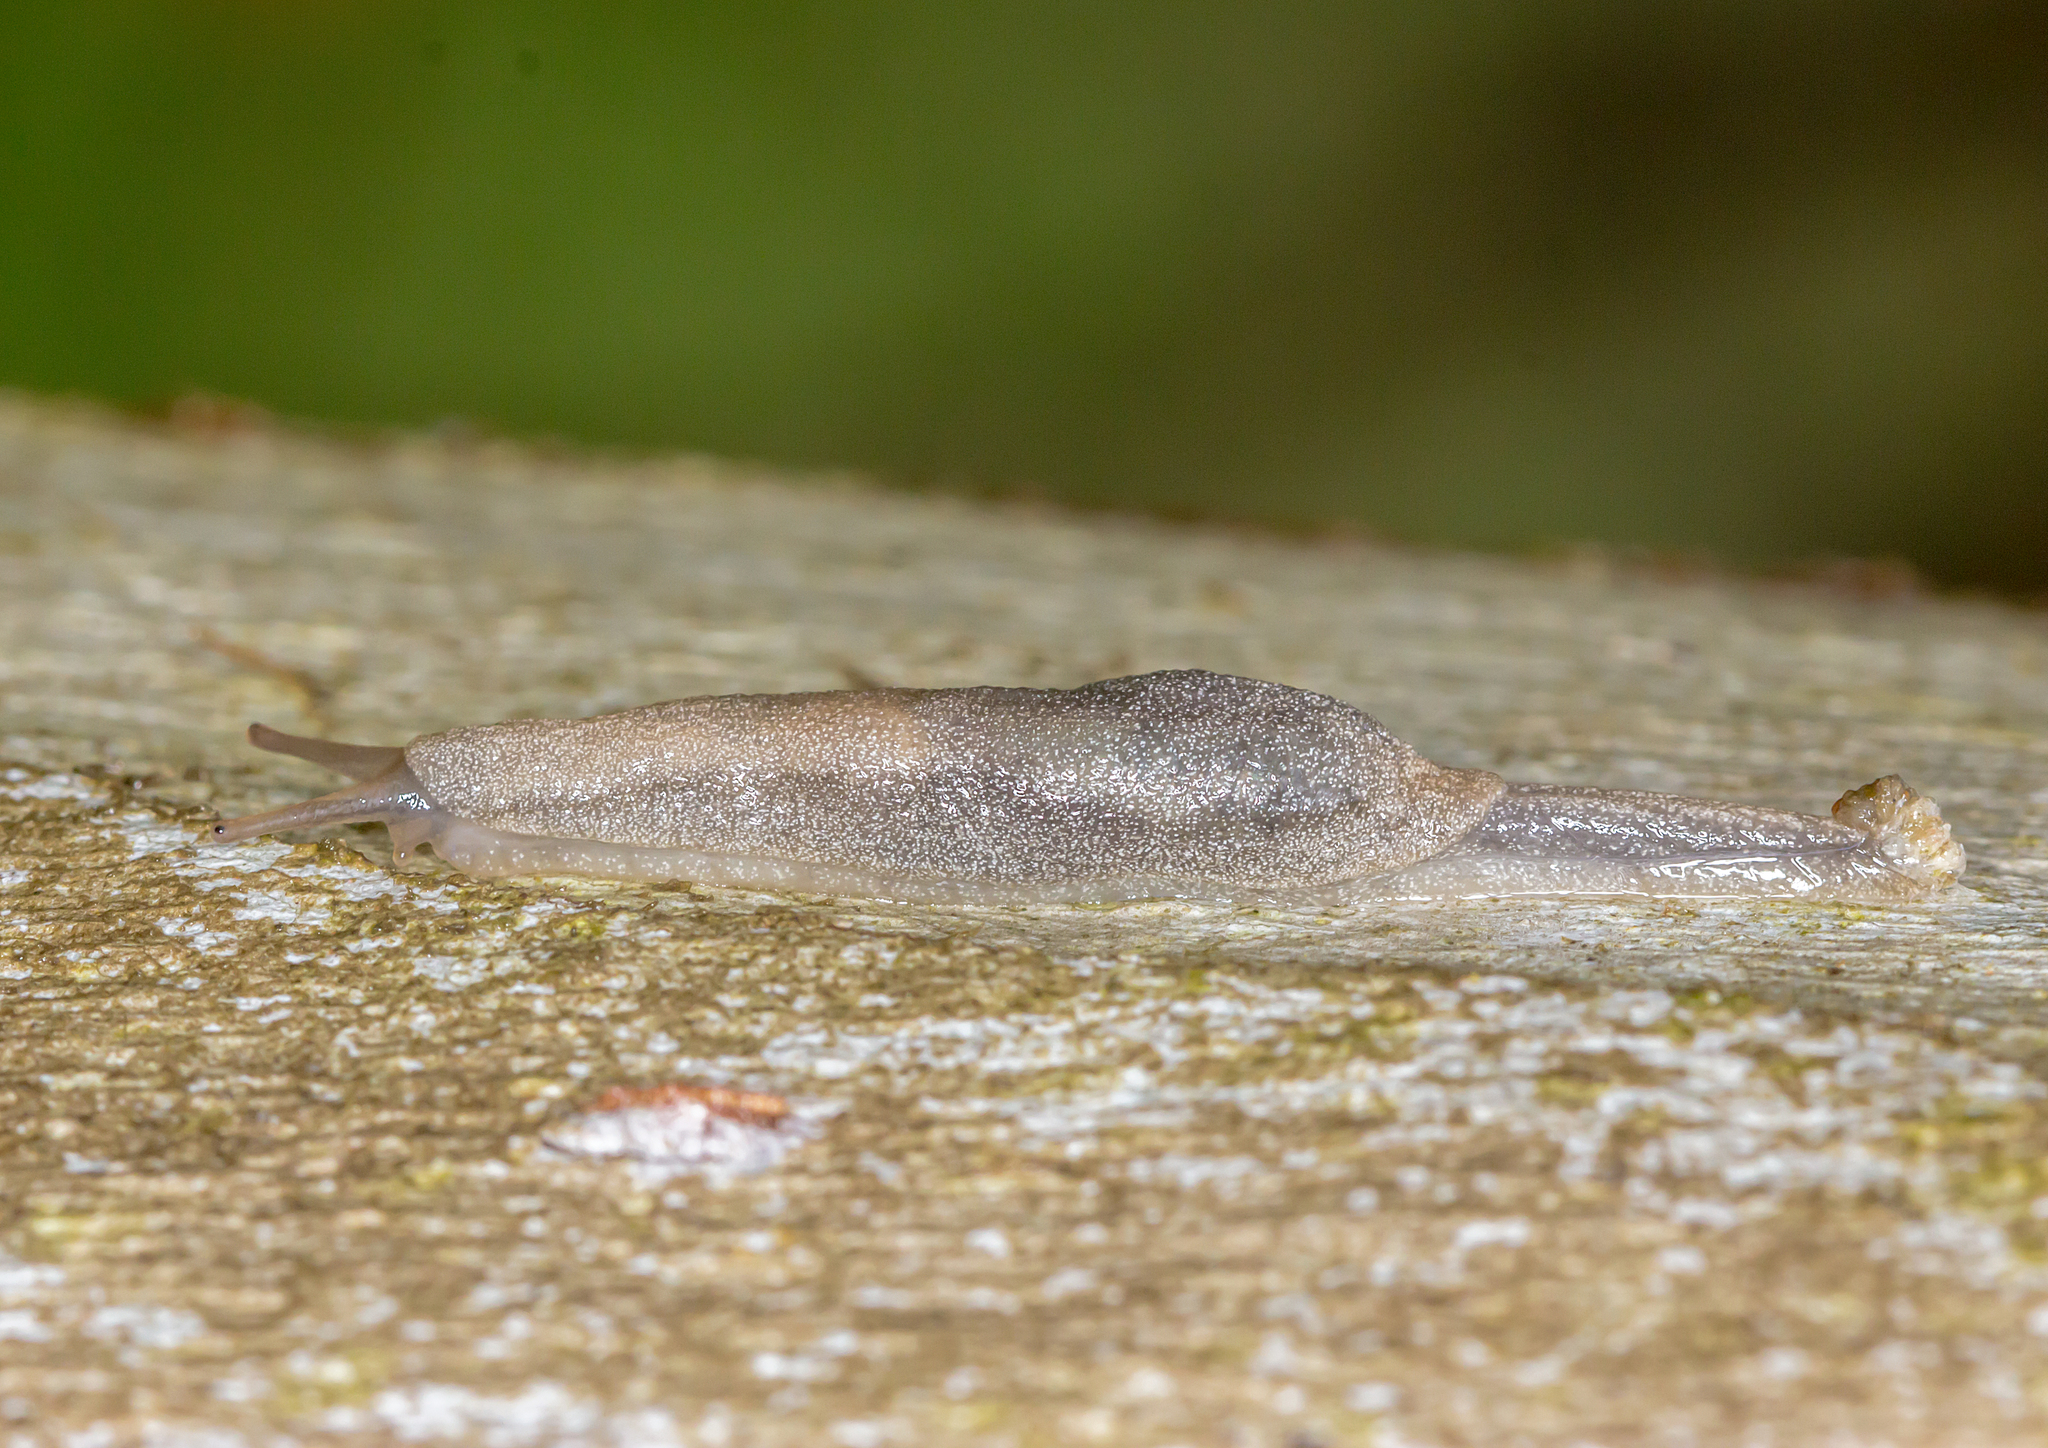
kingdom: Animalia
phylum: Mollusca
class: Gastropoda
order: Stylommatophora
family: Cystopeltidae
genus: Cystopelta
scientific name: Cystopelta
